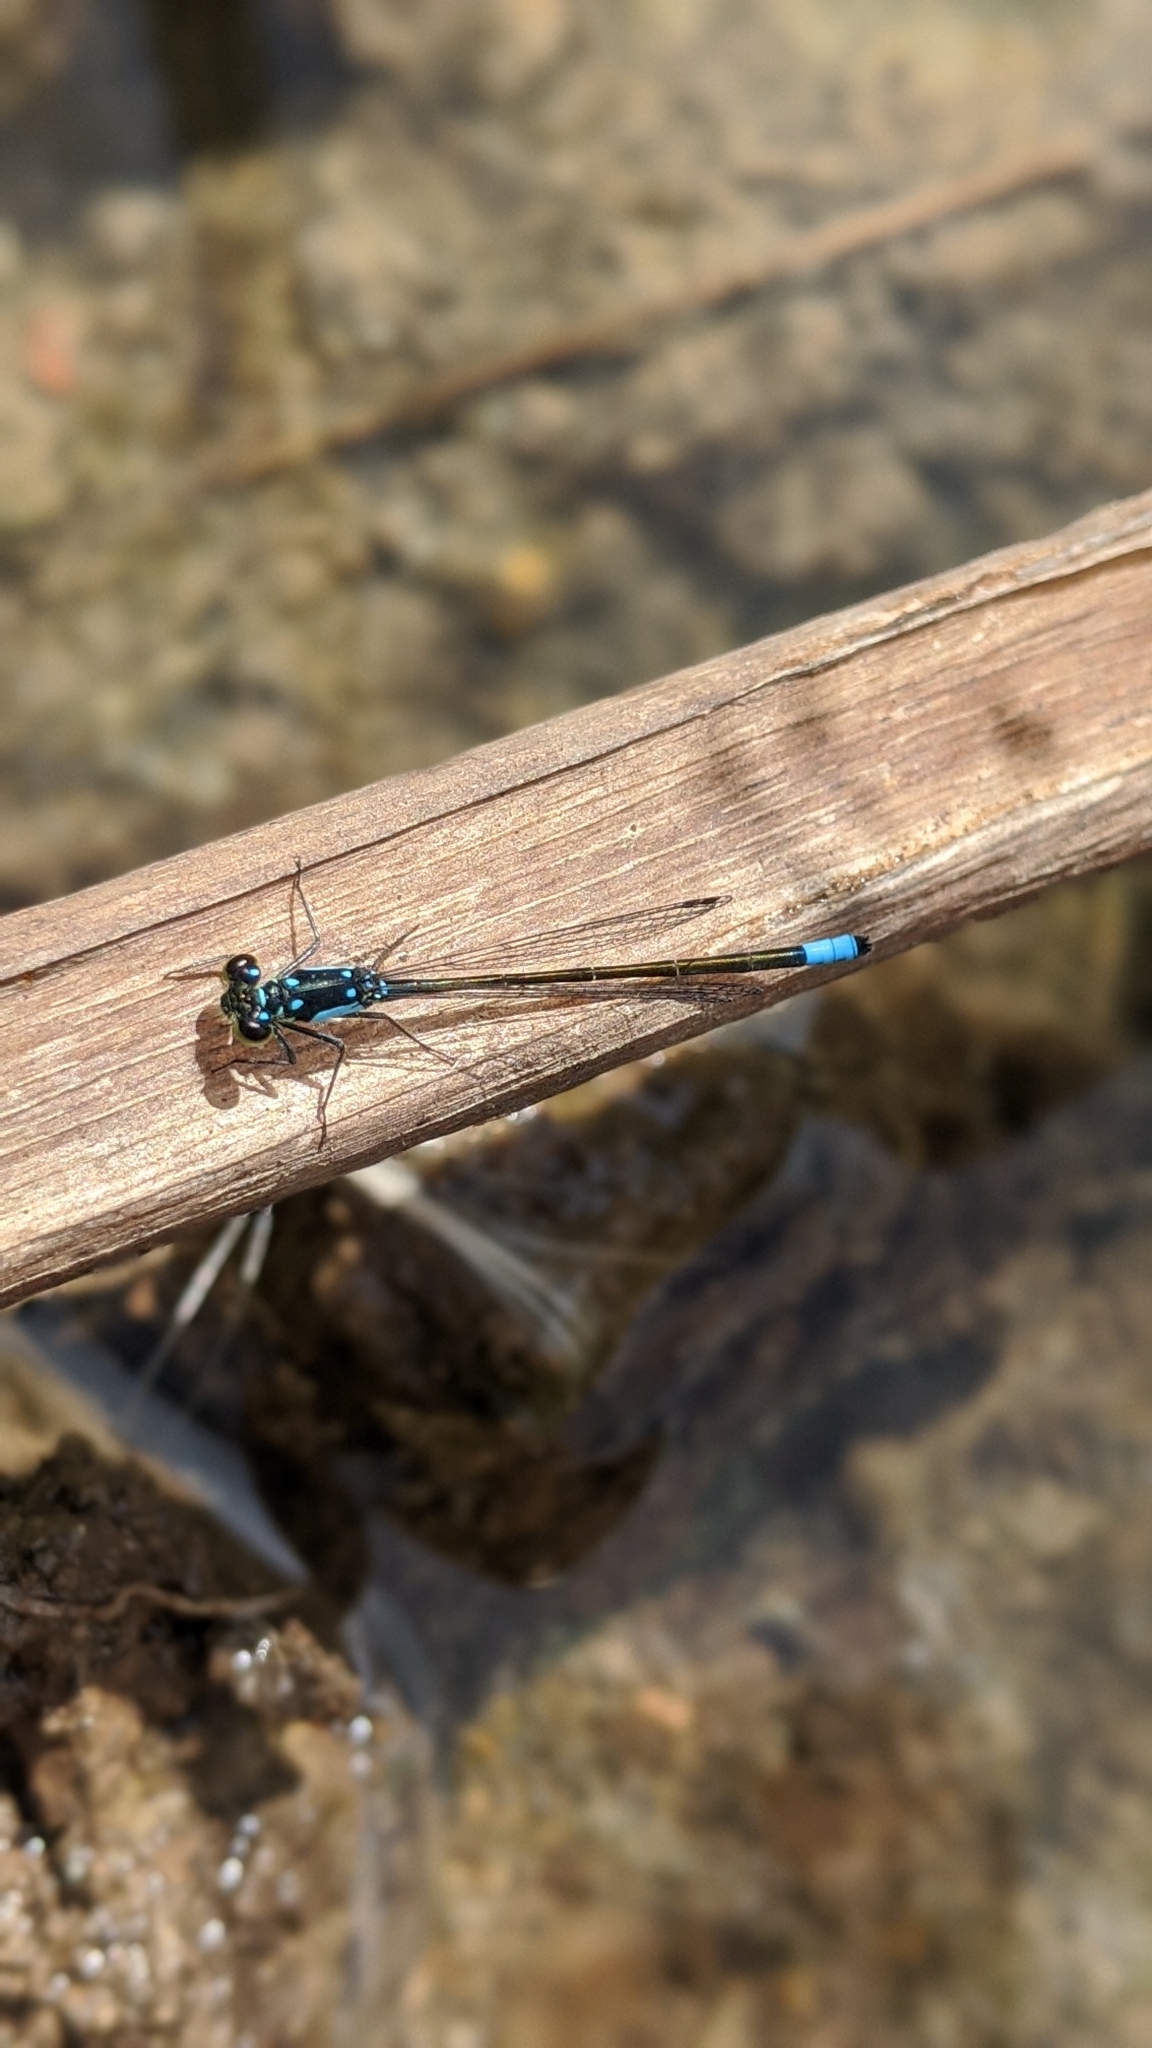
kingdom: Animalia
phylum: Arthropoda
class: Insecta
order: Odonata
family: Coenagrionidae
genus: Ischnura
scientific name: Ischnura cervula
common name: Pacific forktail
